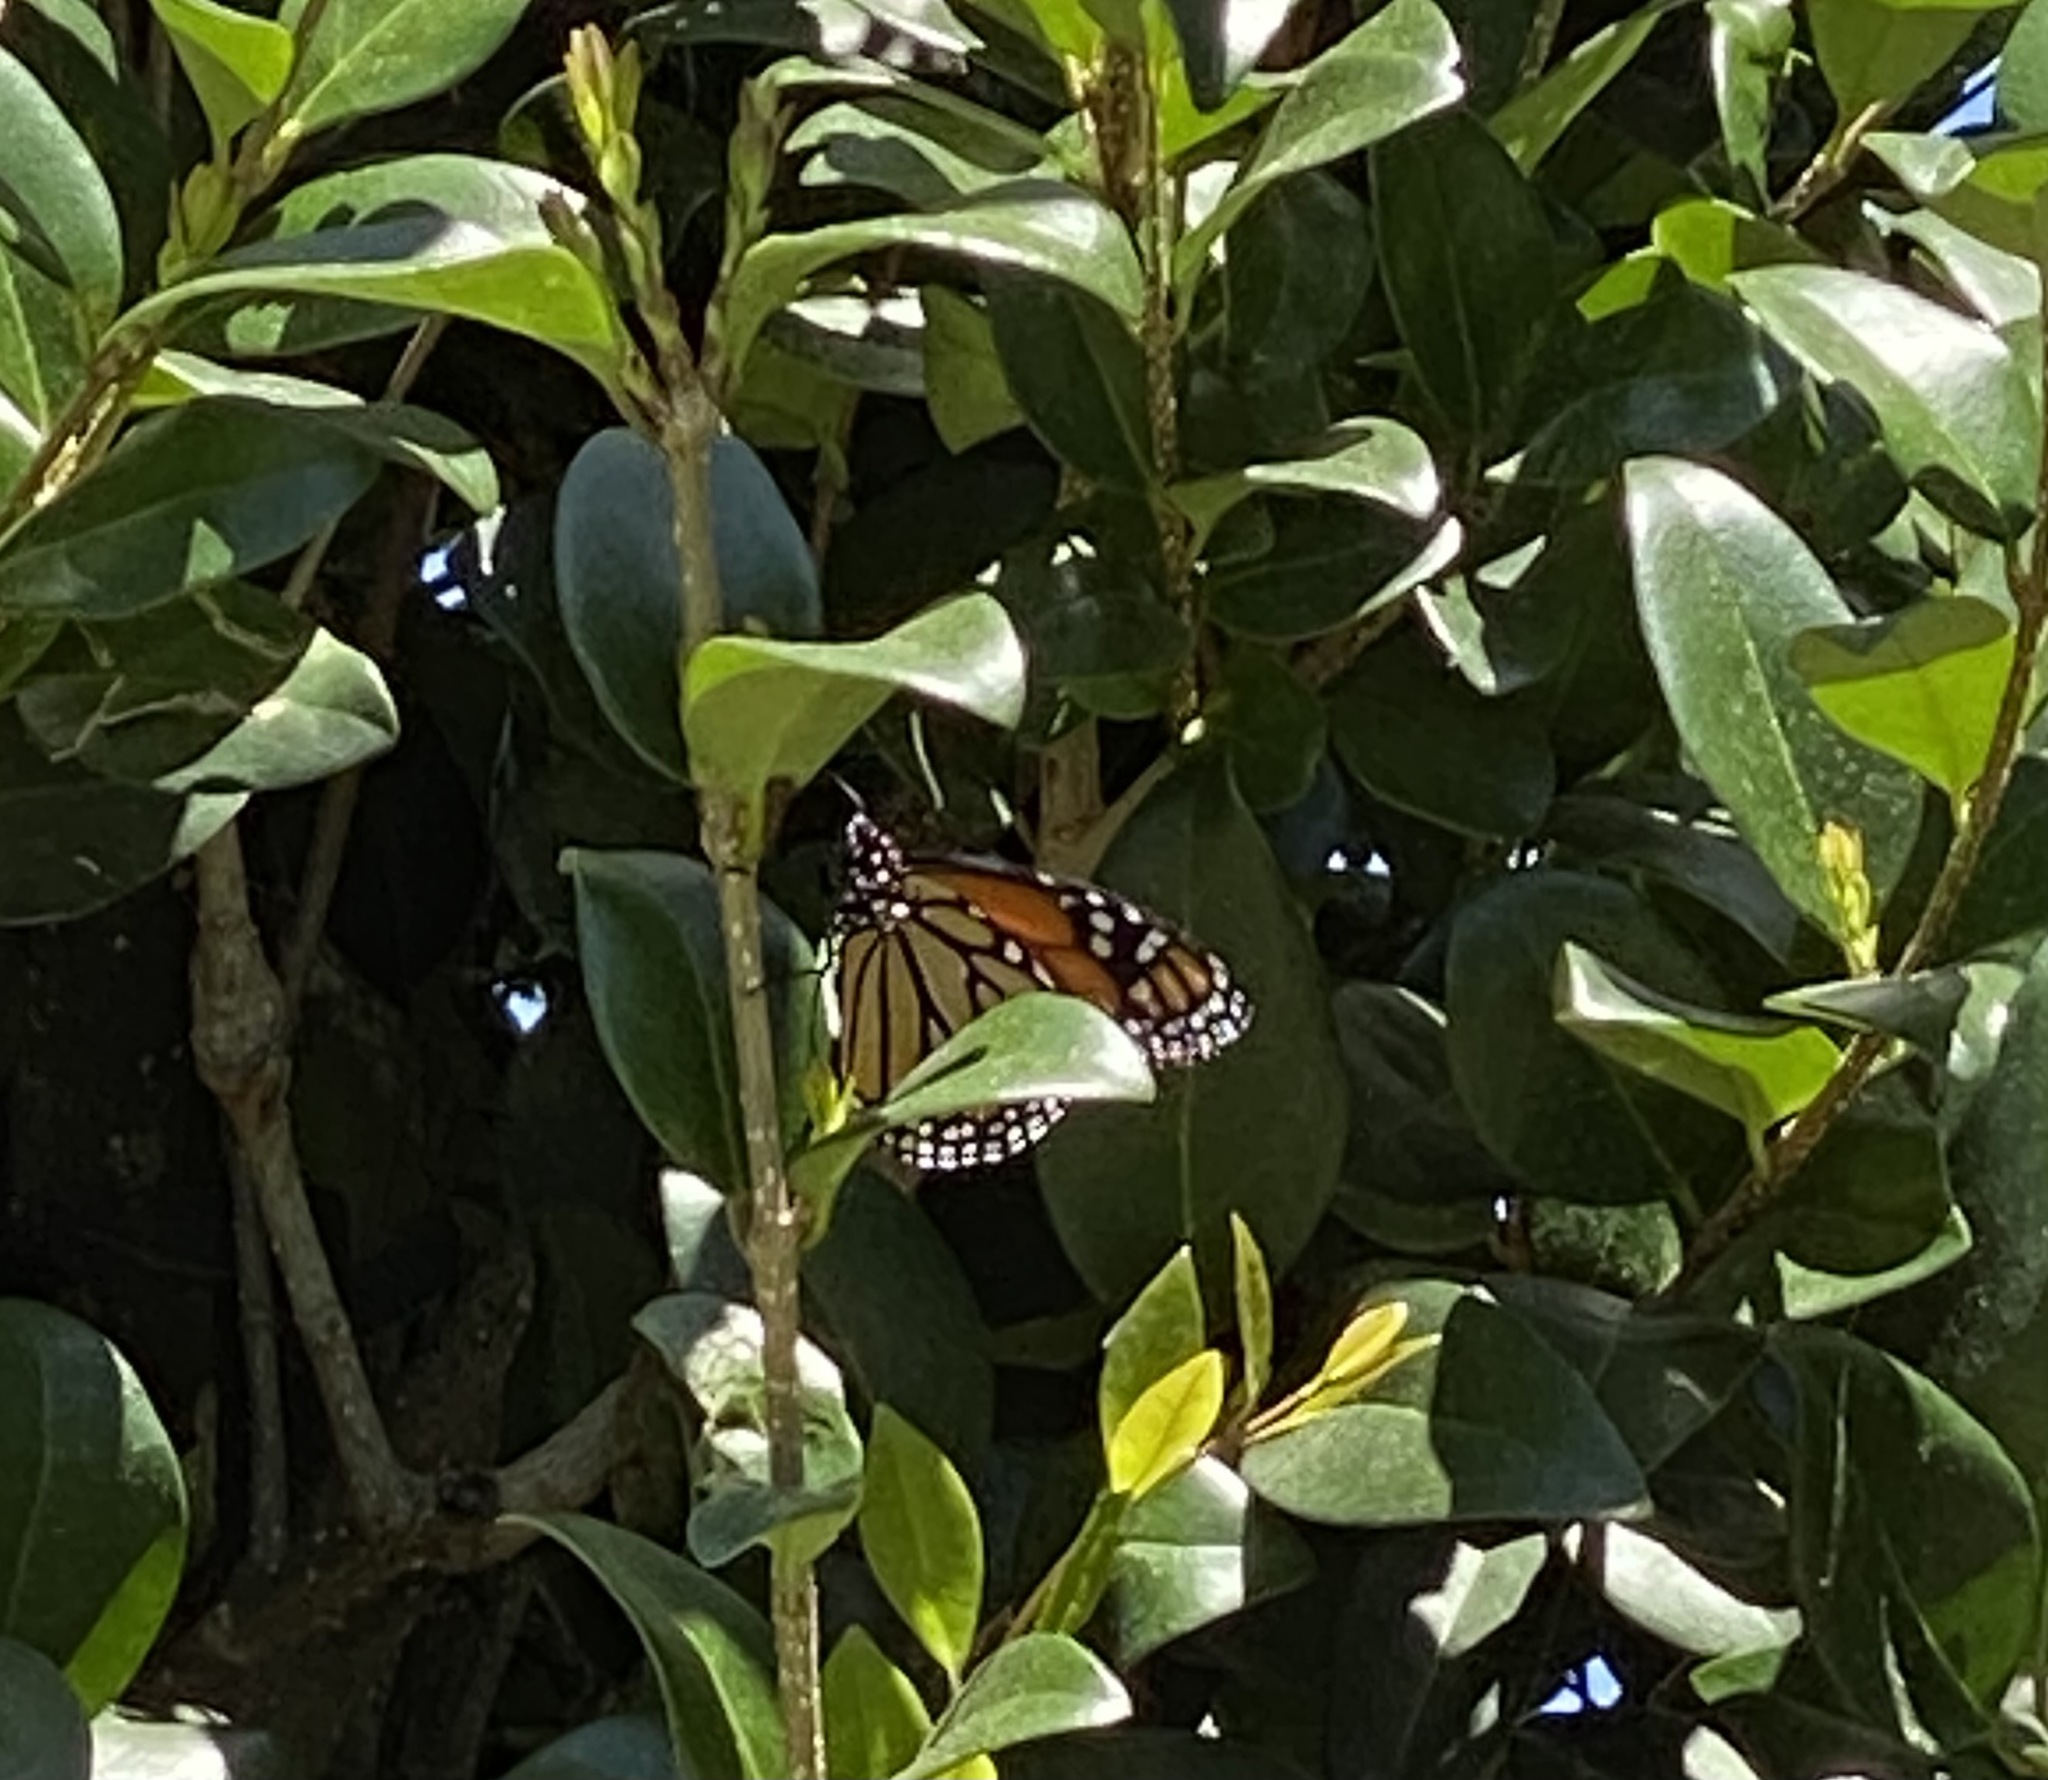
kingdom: Animalia
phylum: Arthropoda
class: Insecta
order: Lepidoptera
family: Nymphalidae
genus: Danaus
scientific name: Danaus plexippus
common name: Monarch
